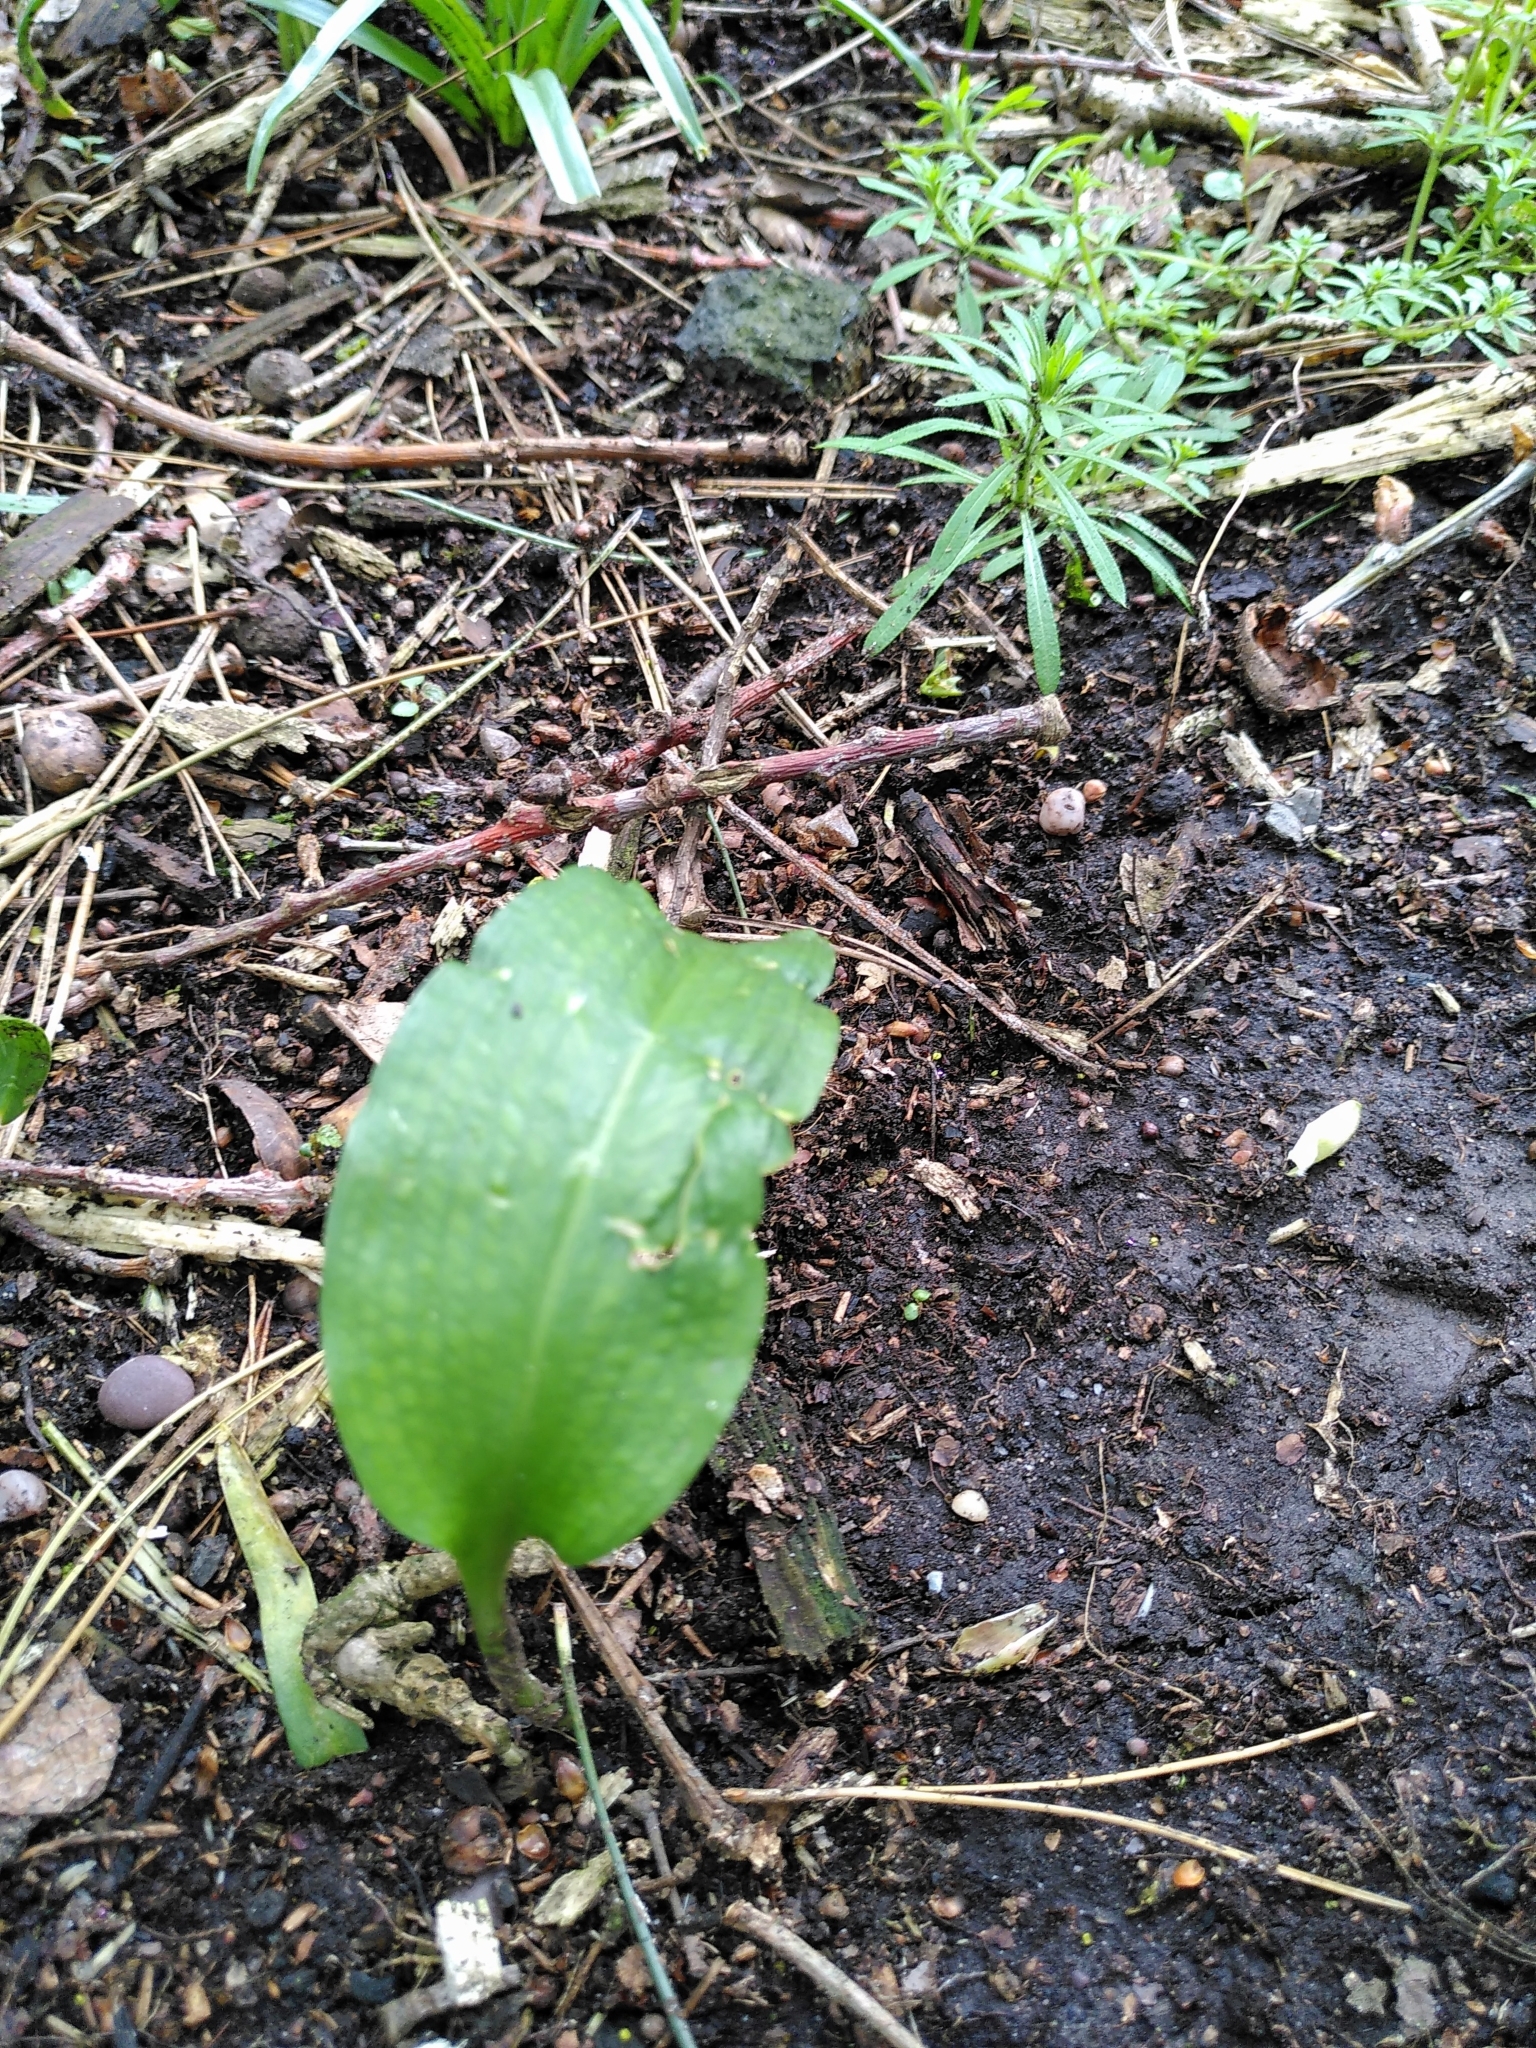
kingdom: Plantae
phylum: Tracheophyta
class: Liliopsida
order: Asparagales
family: Amaryllidaceae
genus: Allium
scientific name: Allium ursinum
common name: Ramsons
